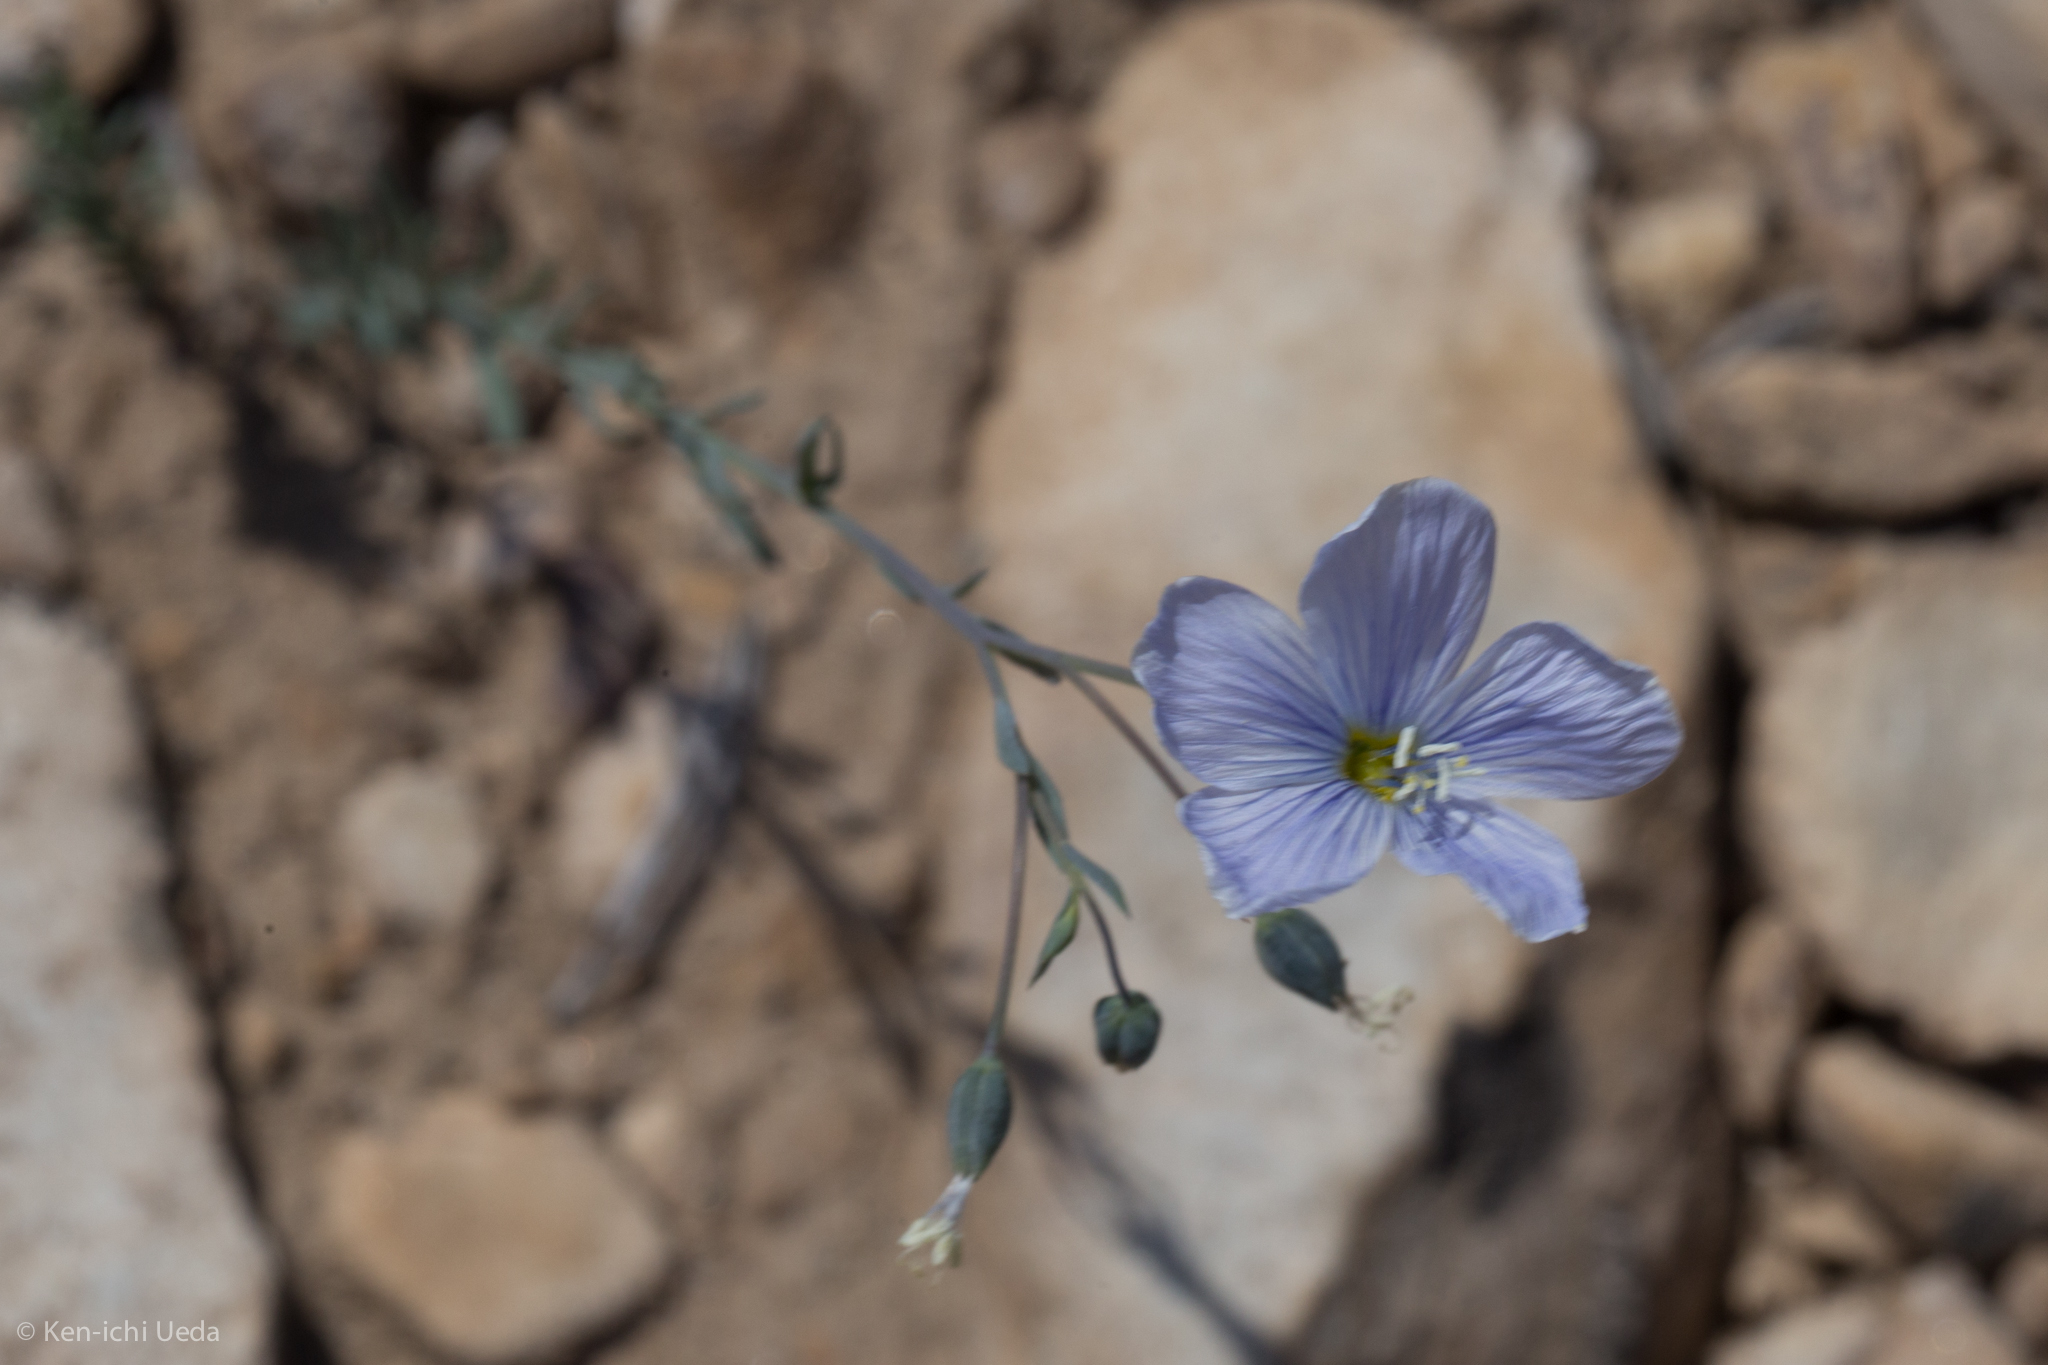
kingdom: Plantae
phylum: Tracheophyta
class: Magnoliopsida
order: Malpighiales
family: Linaceae
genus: Linum
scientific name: Linum lewisii
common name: Prairie flax
